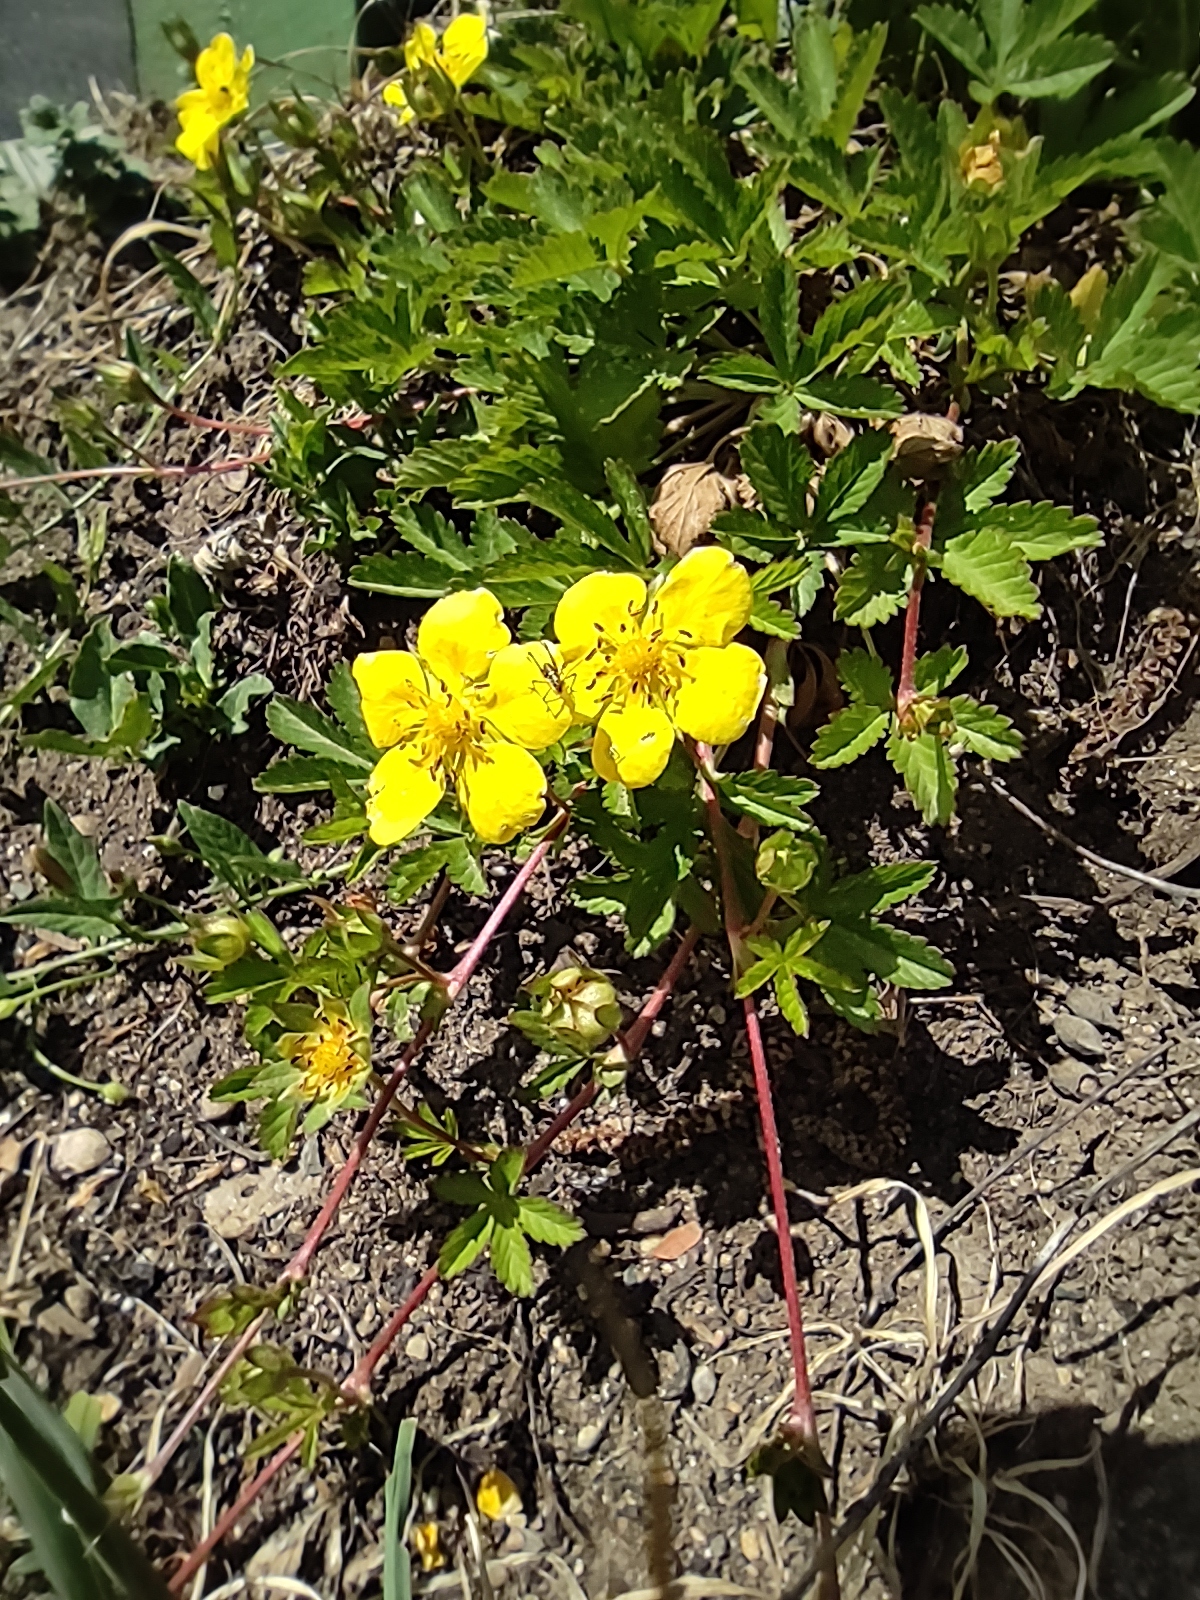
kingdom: Plantae
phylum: Tracheophyta
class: Magnoliopsida
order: Rosales
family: Rosaceae
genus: Potentilla
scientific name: Potentilla reptans
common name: Creeping cinquefoil
